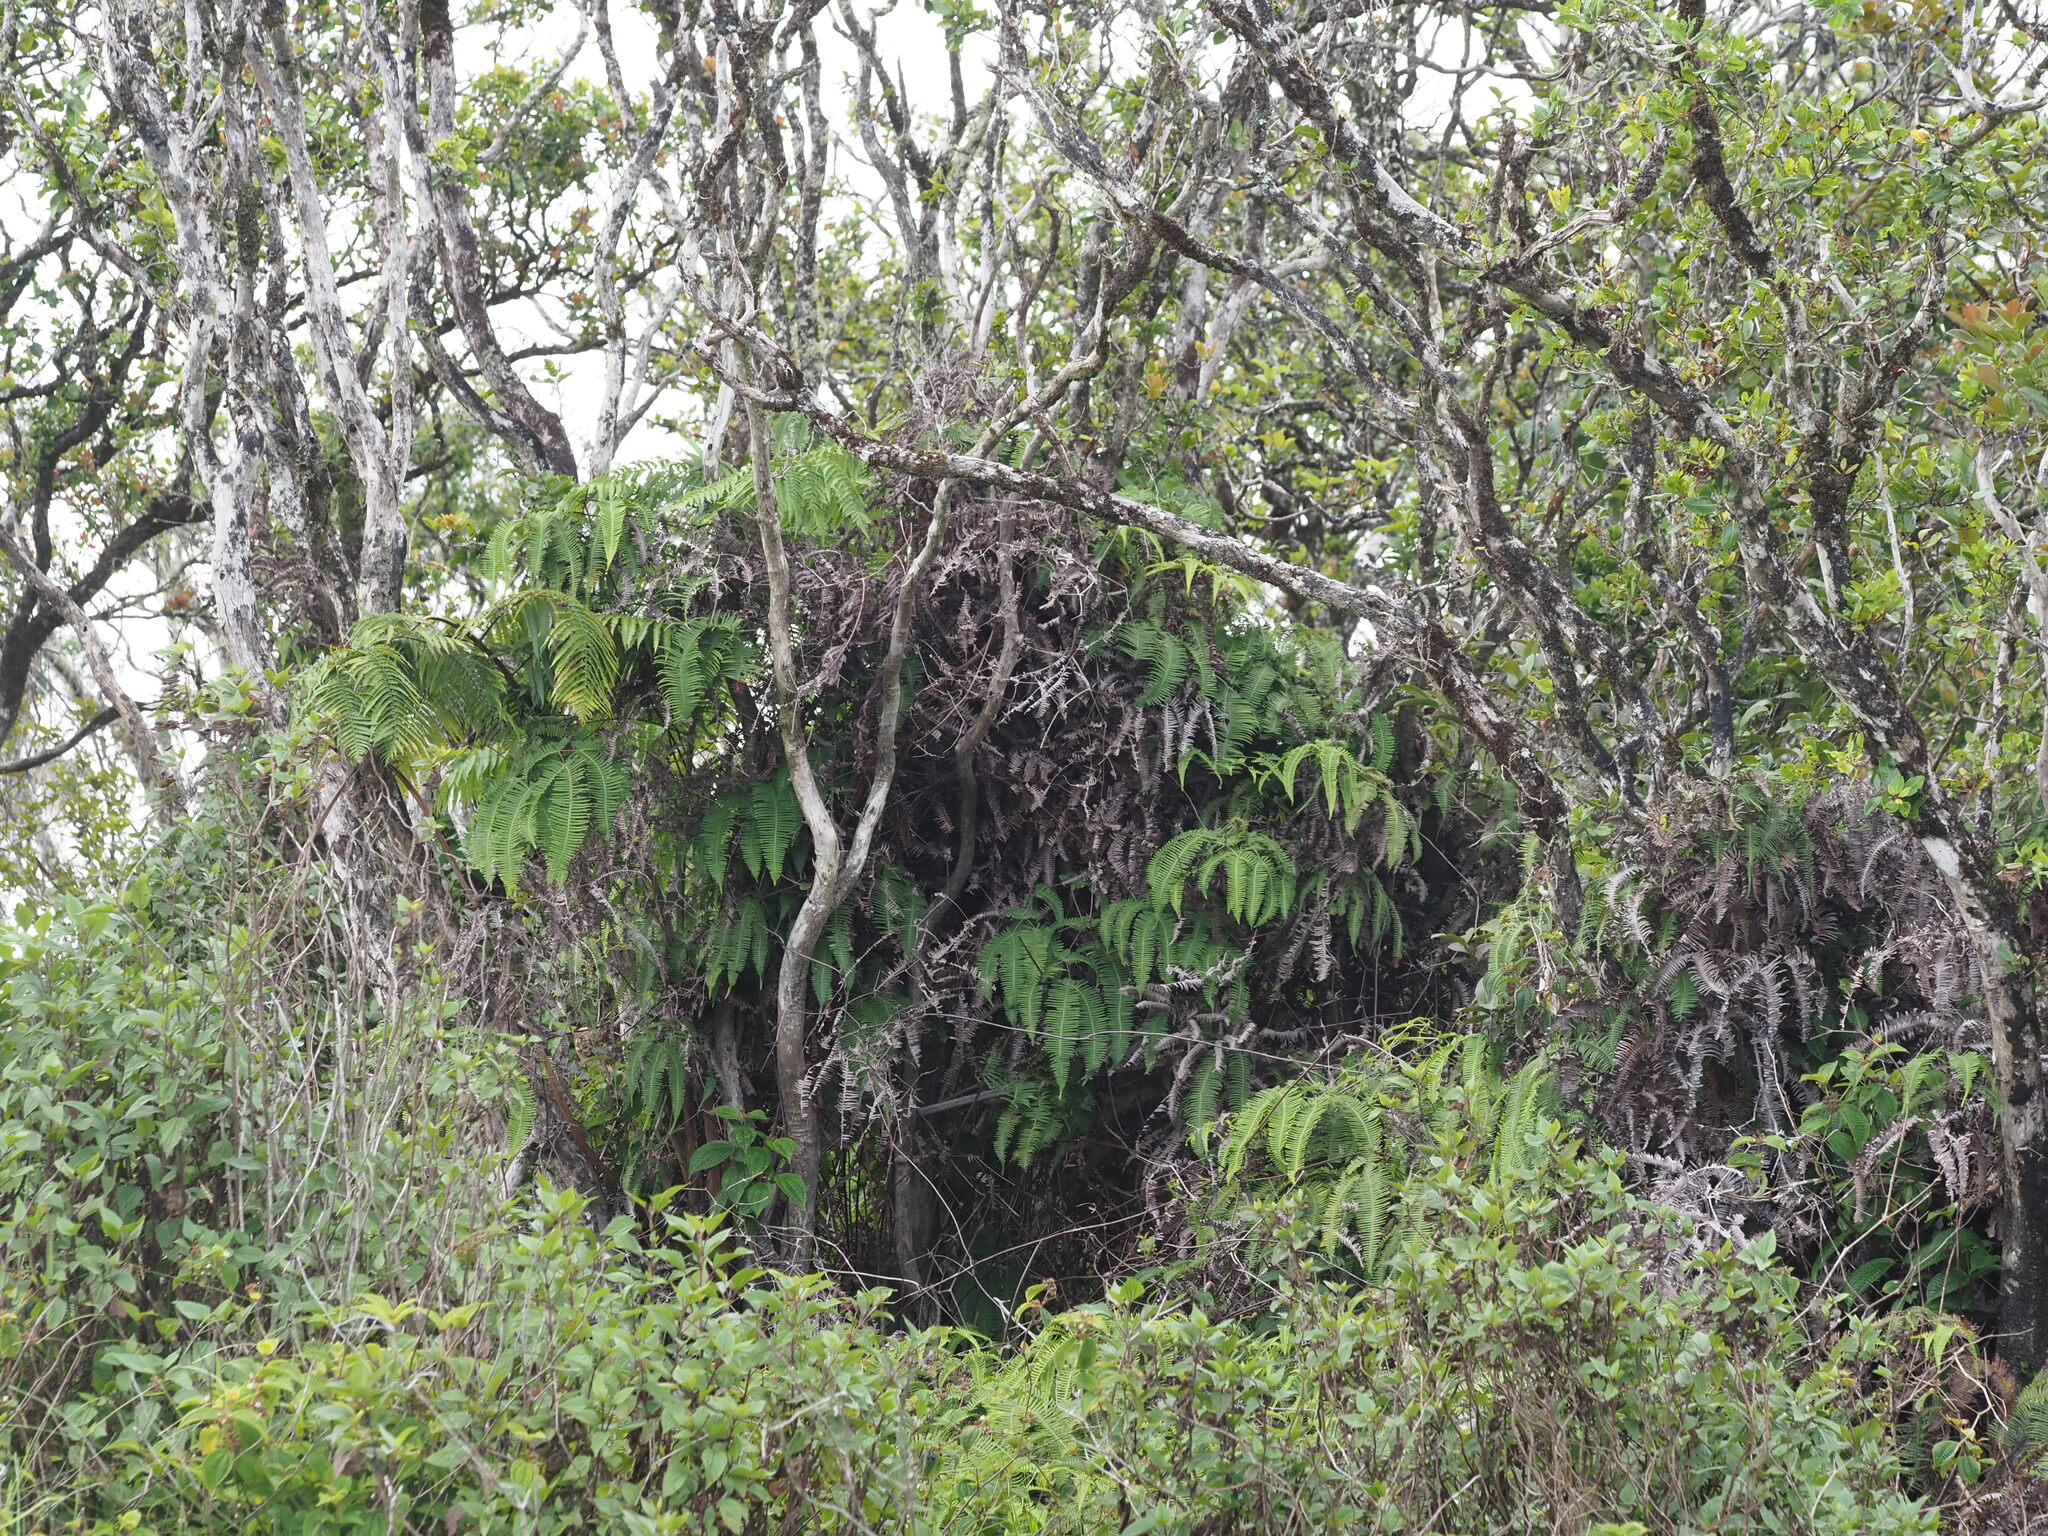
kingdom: Plantae
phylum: Tracheophyta
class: Polypodiopsida
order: Gleicheniales
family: Gleicheniaceae
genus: Dicranopteris
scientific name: Dicranopteris linearis
